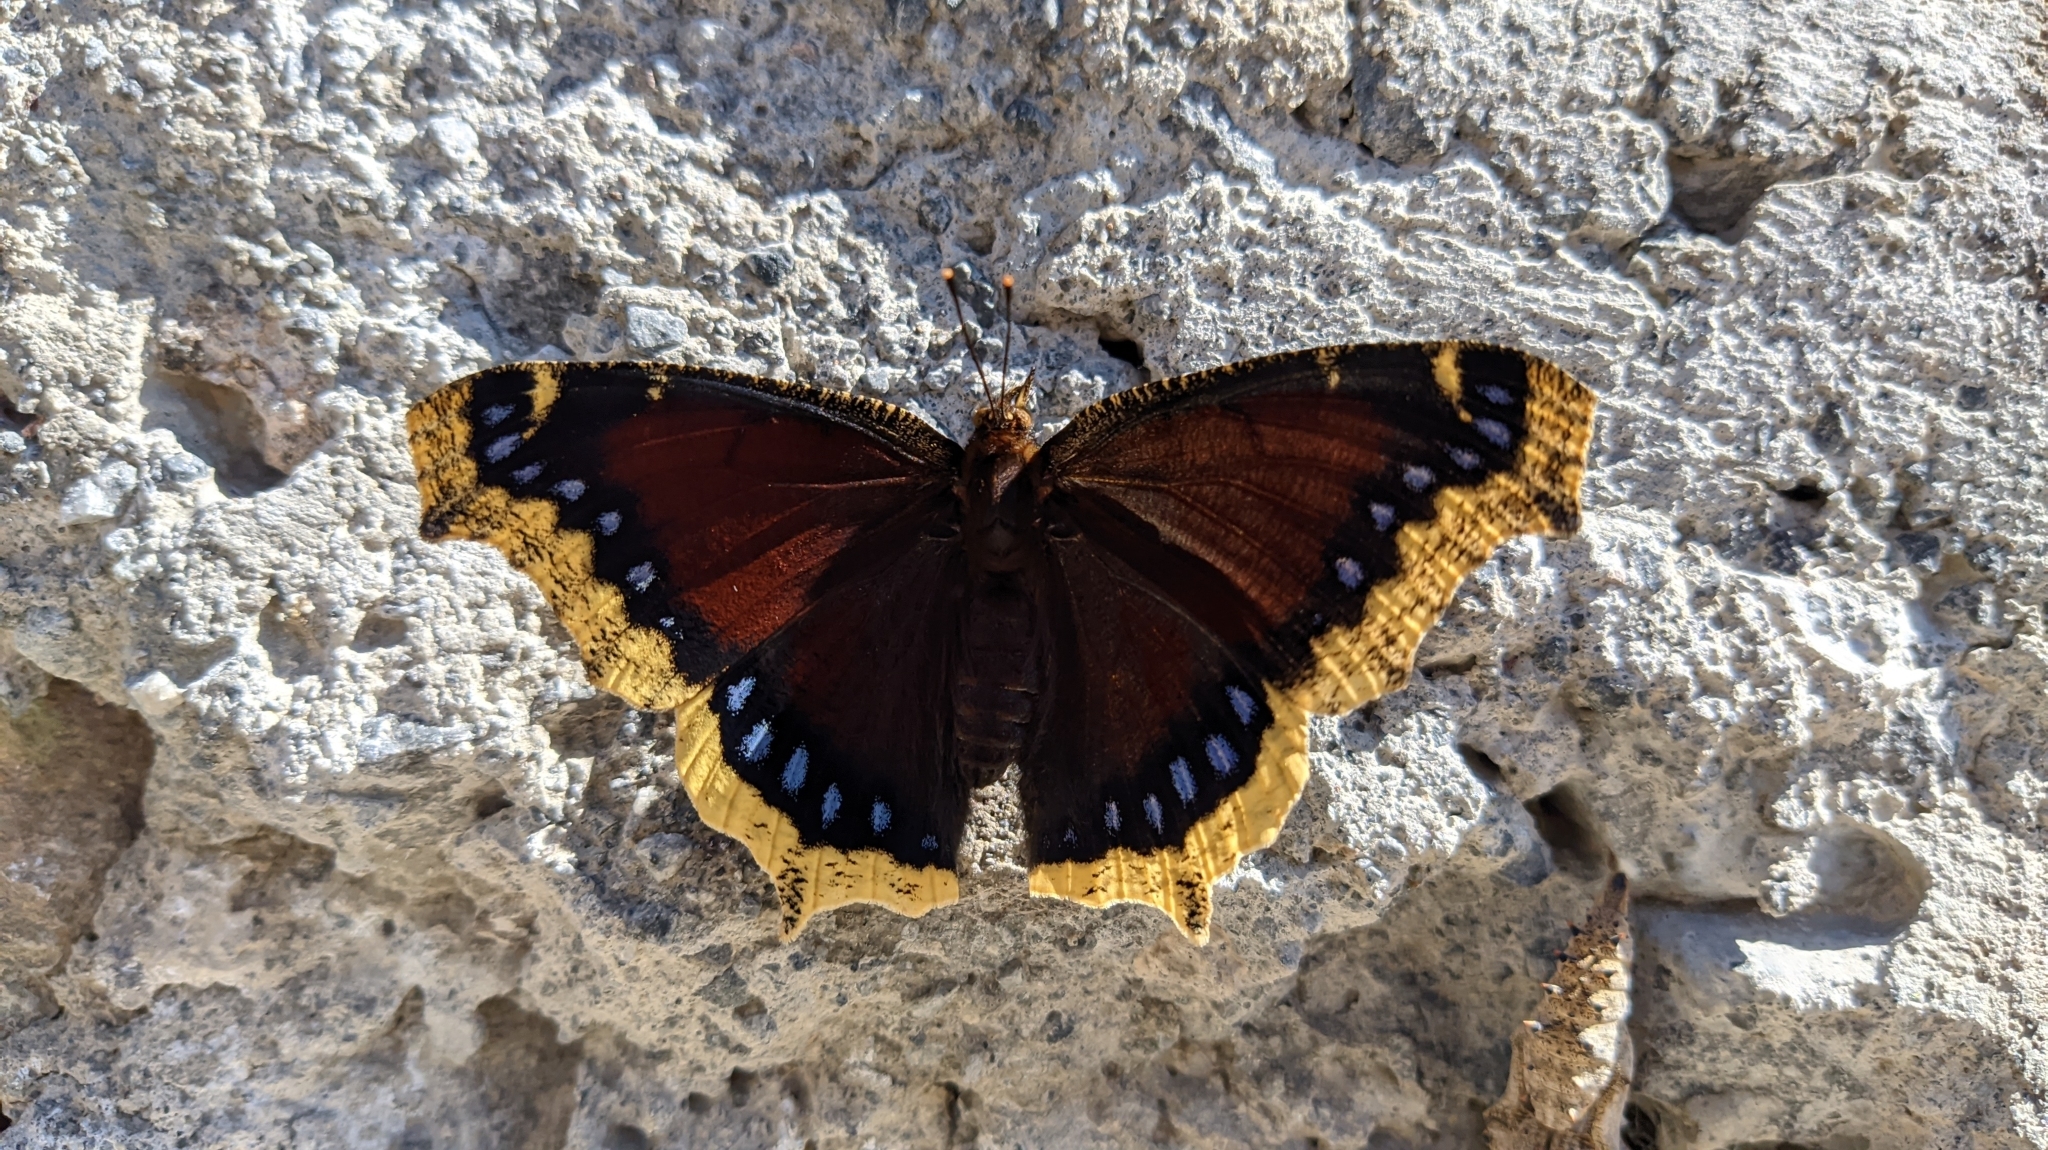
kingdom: Animalia
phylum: Arthropoda
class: Insecta
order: Lepidoptera
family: Nymphalidae
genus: Nymphalis
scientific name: Nymphalis antiopa
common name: Camberwell beauty
